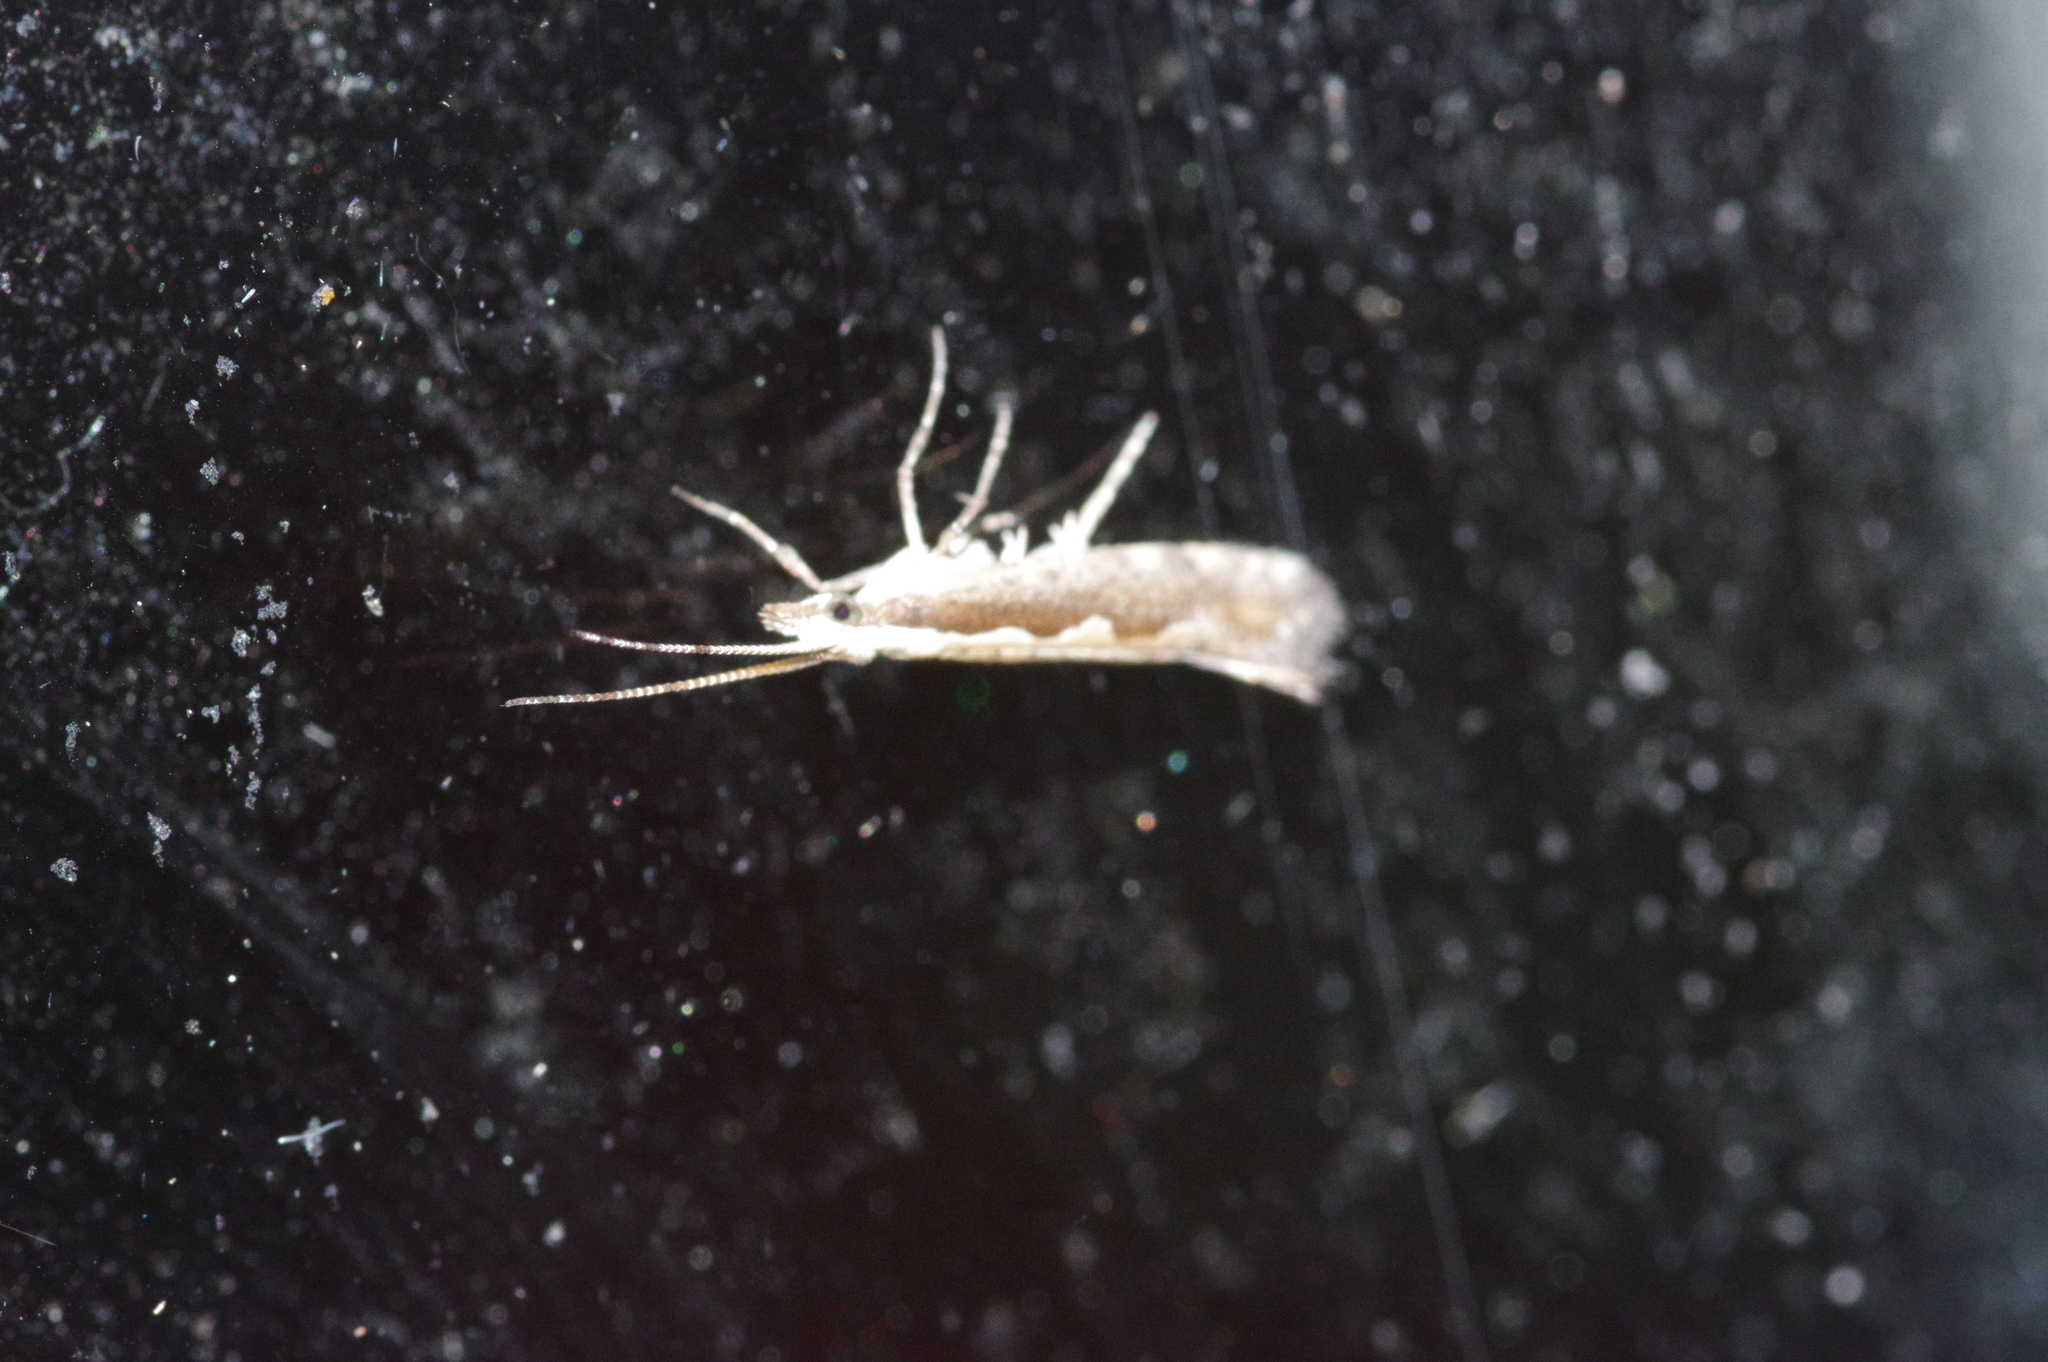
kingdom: Animalia
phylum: Arthropoda
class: Insecta
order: Lepidoptera
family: Plutellidae
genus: Plutella
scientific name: Plutella xylostella
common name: Diamond-back moth
